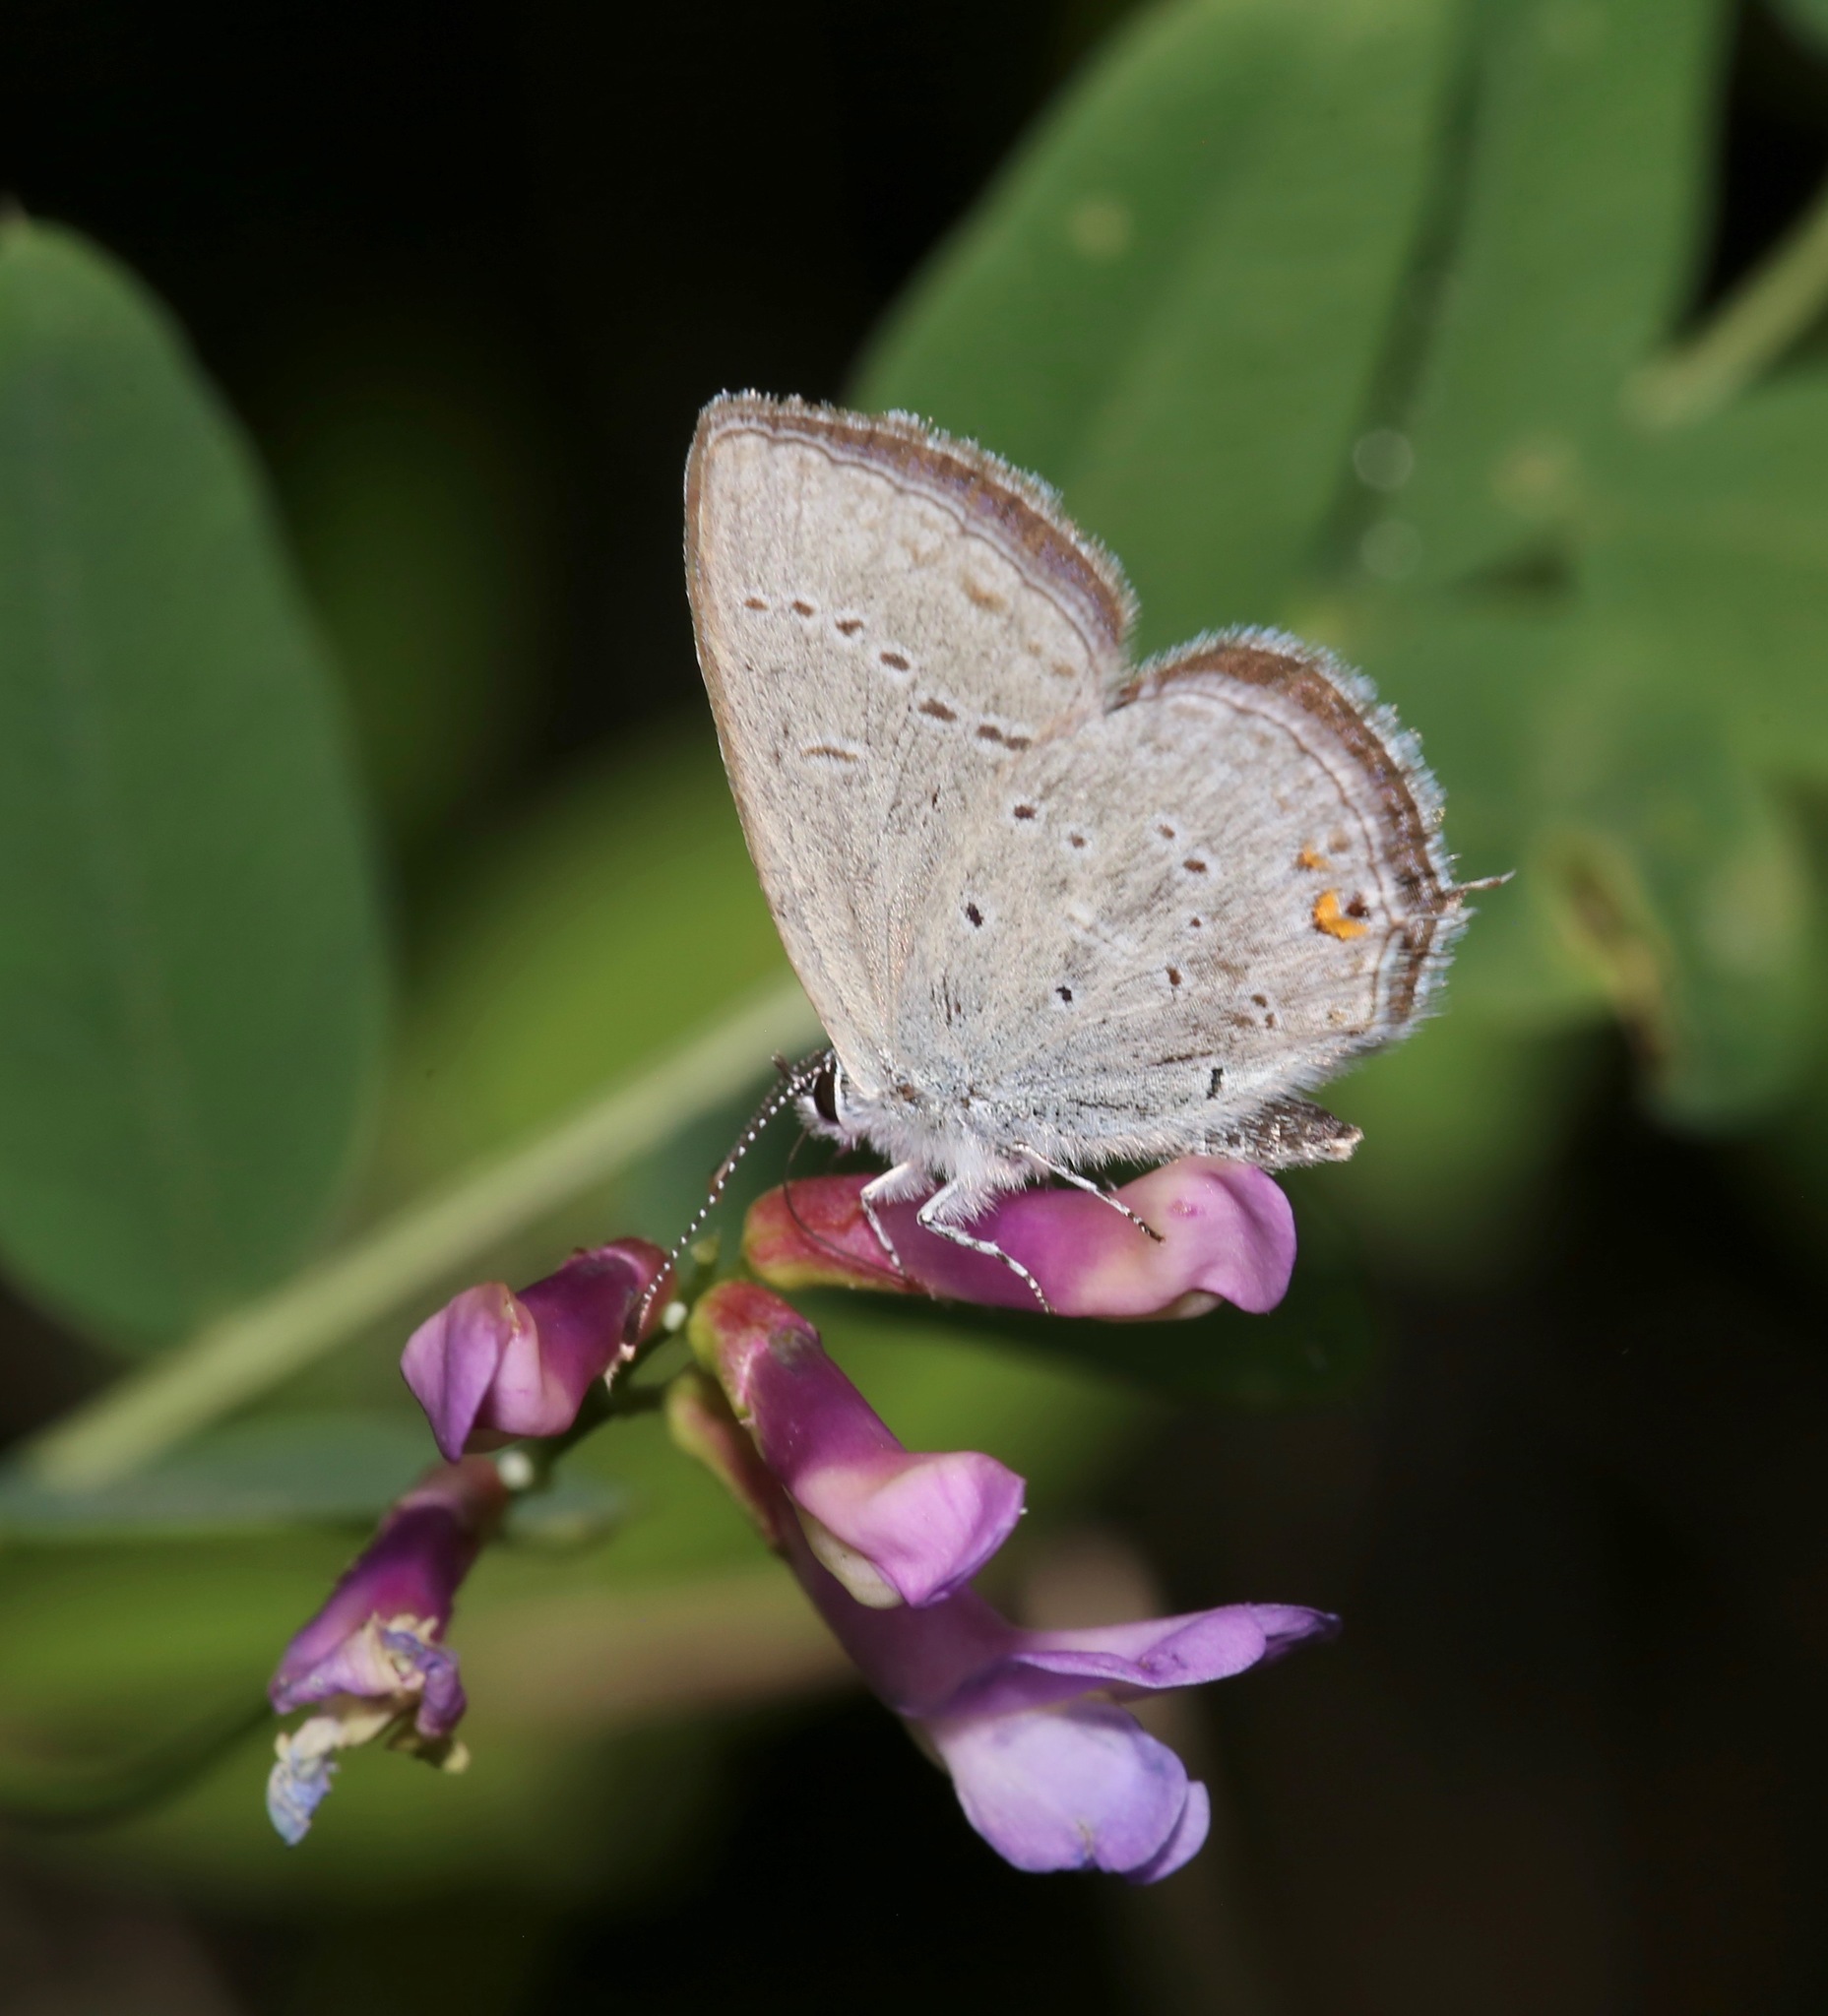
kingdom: Animalia
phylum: Arthropoda
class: Insecta
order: Lepidoptera
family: Lycaenidae
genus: Elkalyce
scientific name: Elkalyce amyntula
